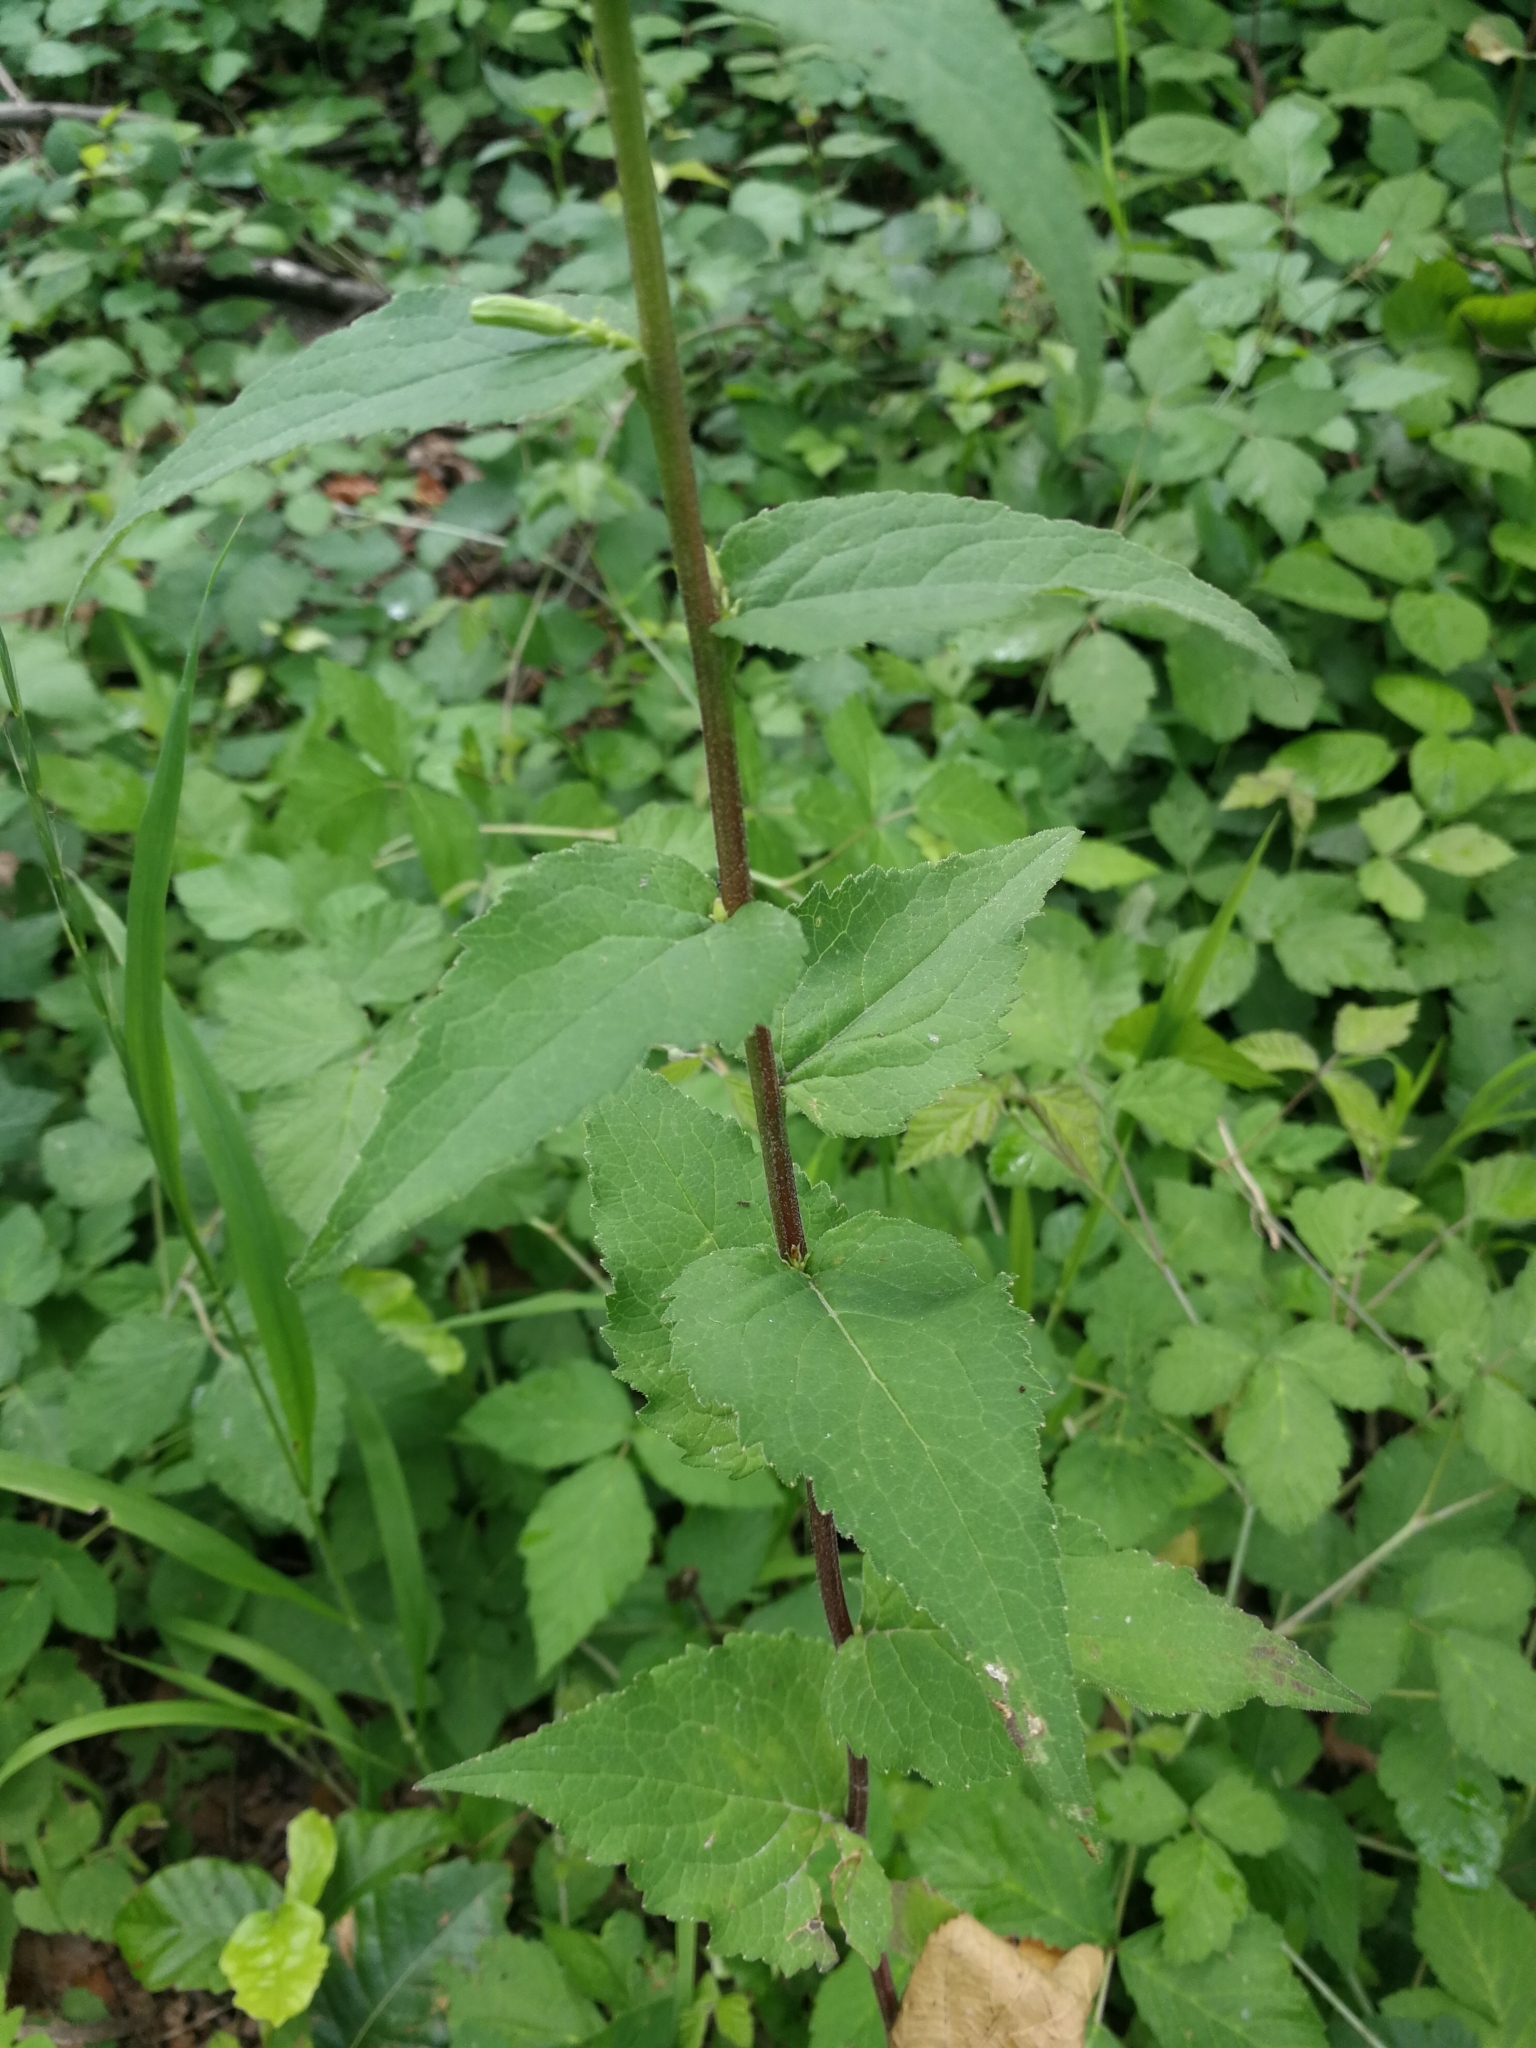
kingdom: Plantae
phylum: Tracheophyta
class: Magnoliopsida
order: Asterales
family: Campanulaceae
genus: Campanula
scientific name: Campanula rapunculoides
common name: Creeping bellflower
